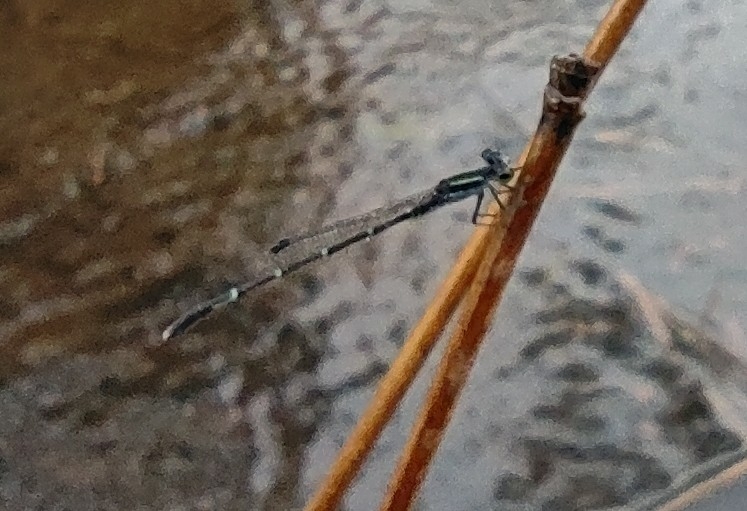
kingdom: Animalia
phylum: Arthropoda
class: Insecta
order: Odonata
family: Coenagrionidae
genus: Agriocnemis
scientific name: Agriocnemis splendidissima
